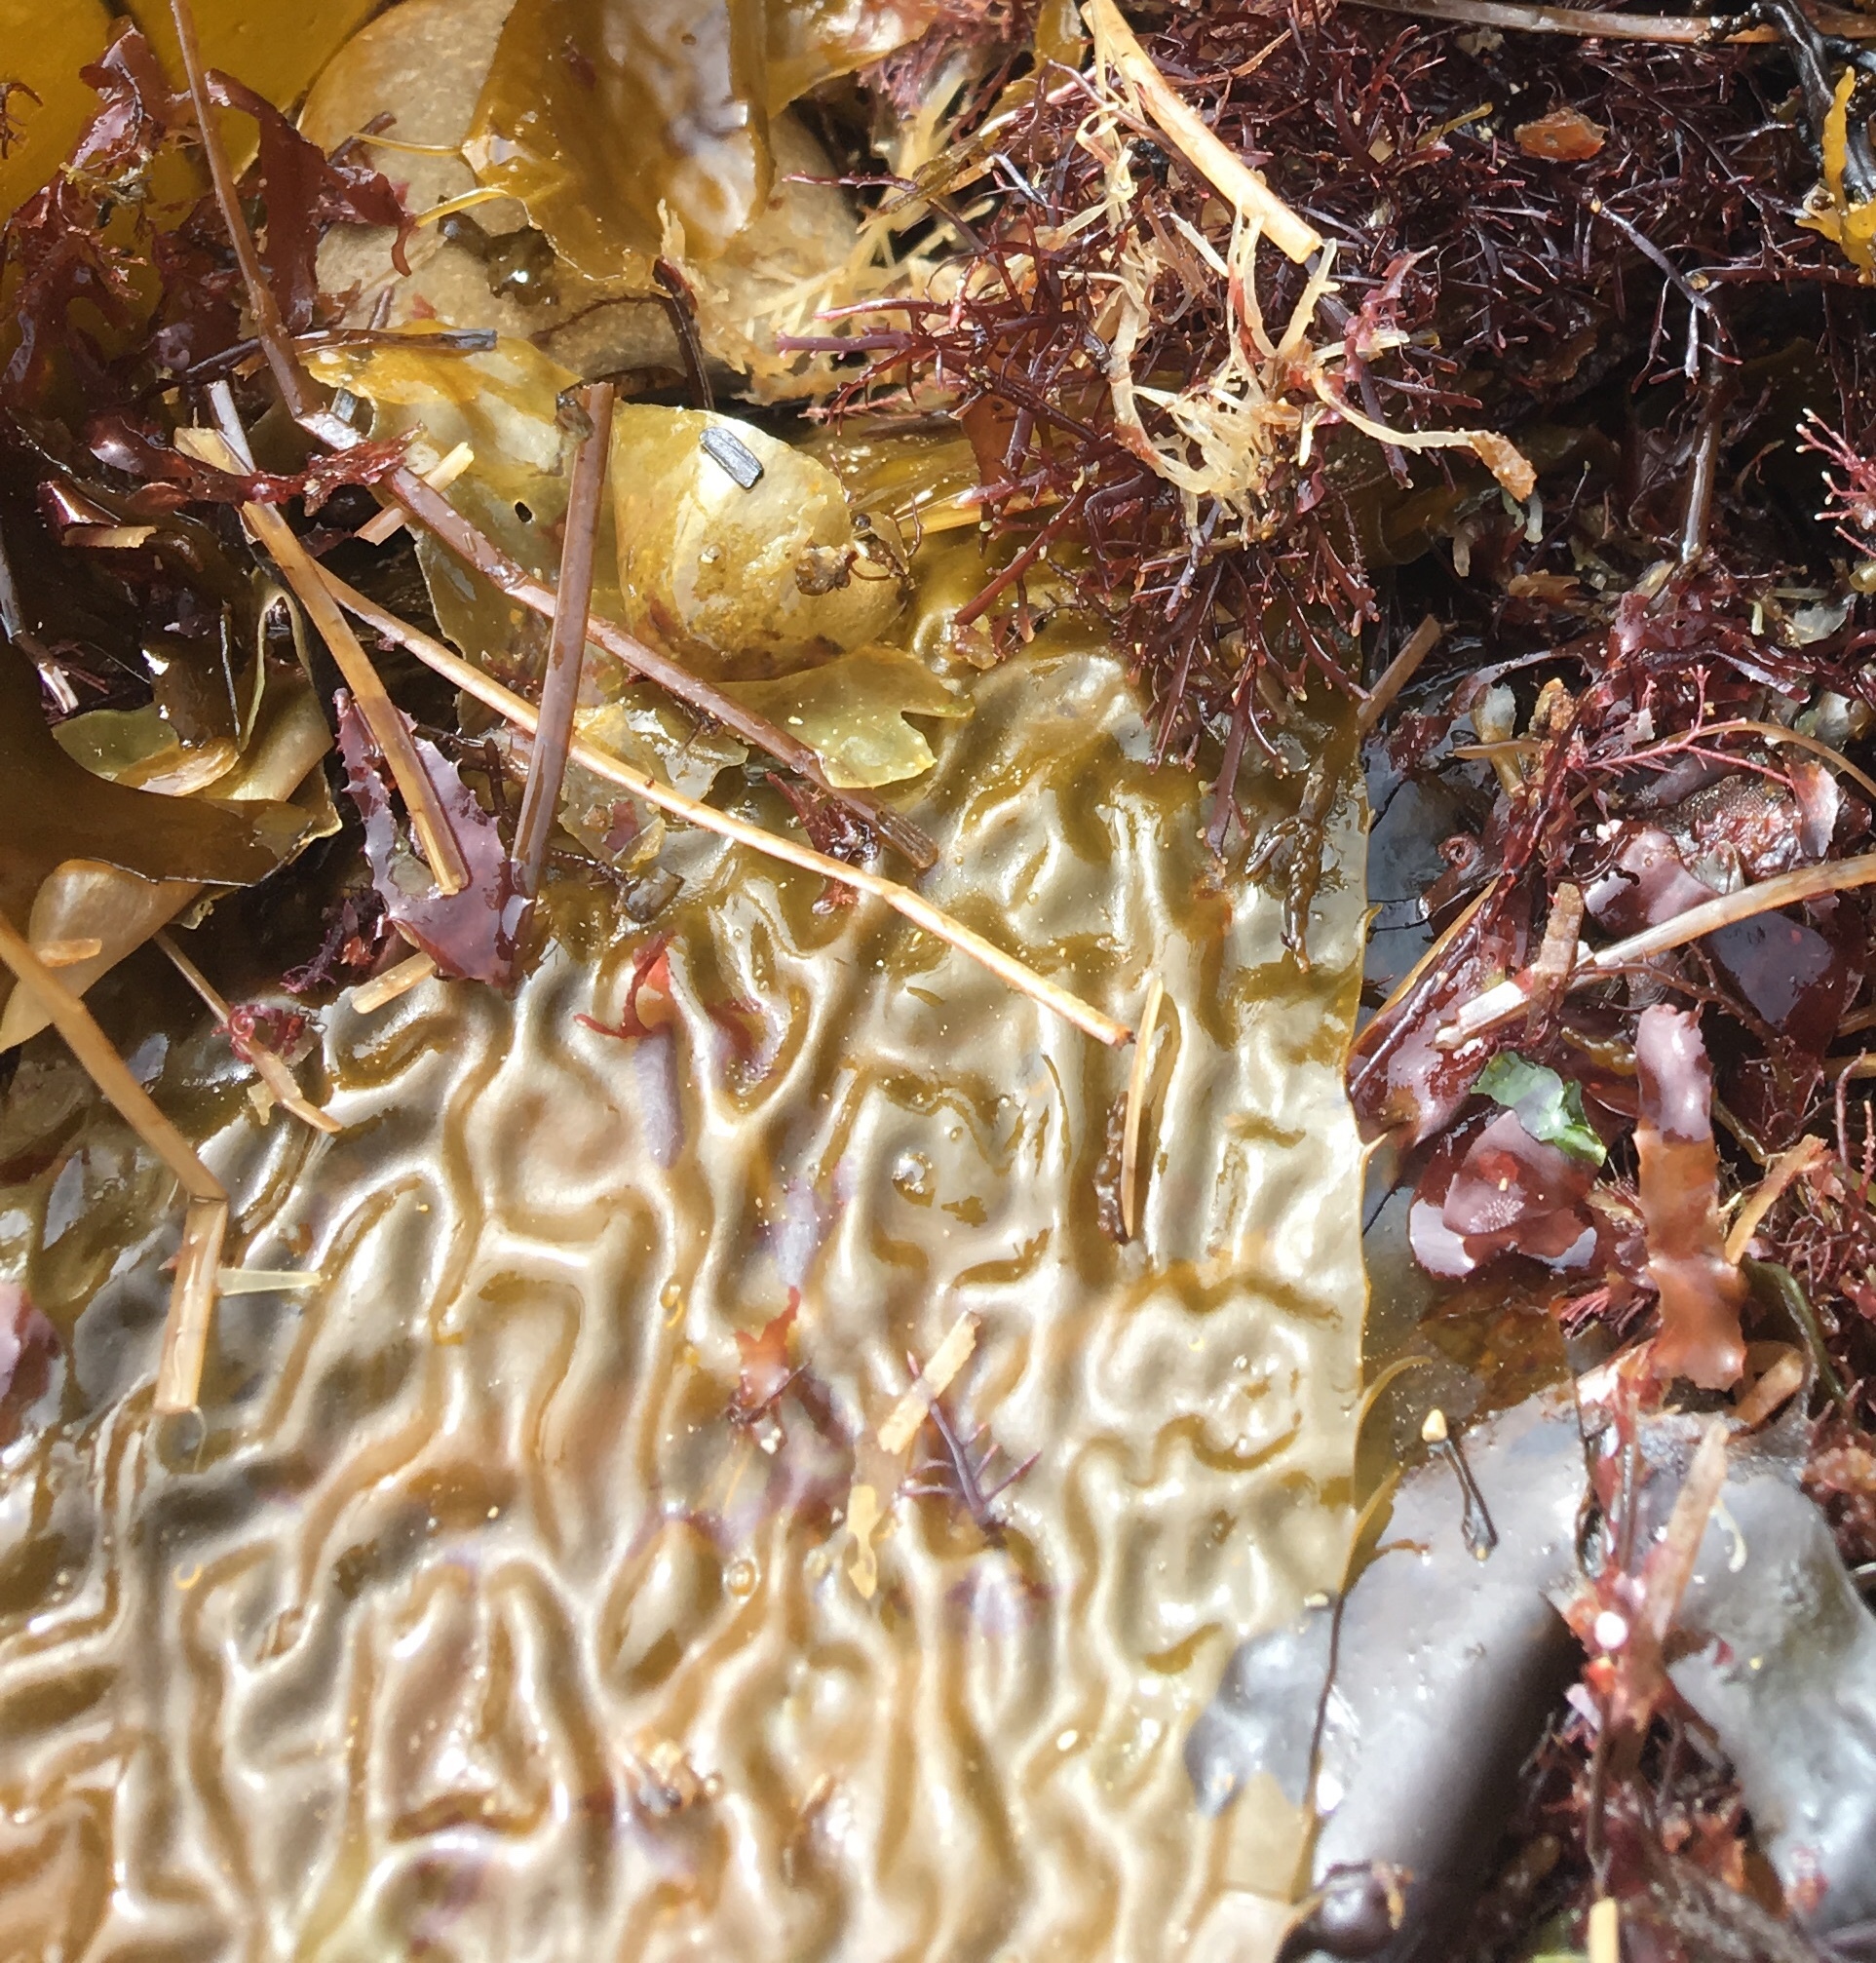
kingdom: Chromista
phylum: Ochrophyta
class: Phaeophyceae
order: Laminariales
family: Laminariaceae
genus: Macrocystis
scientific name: Macrocystis pyrifera
